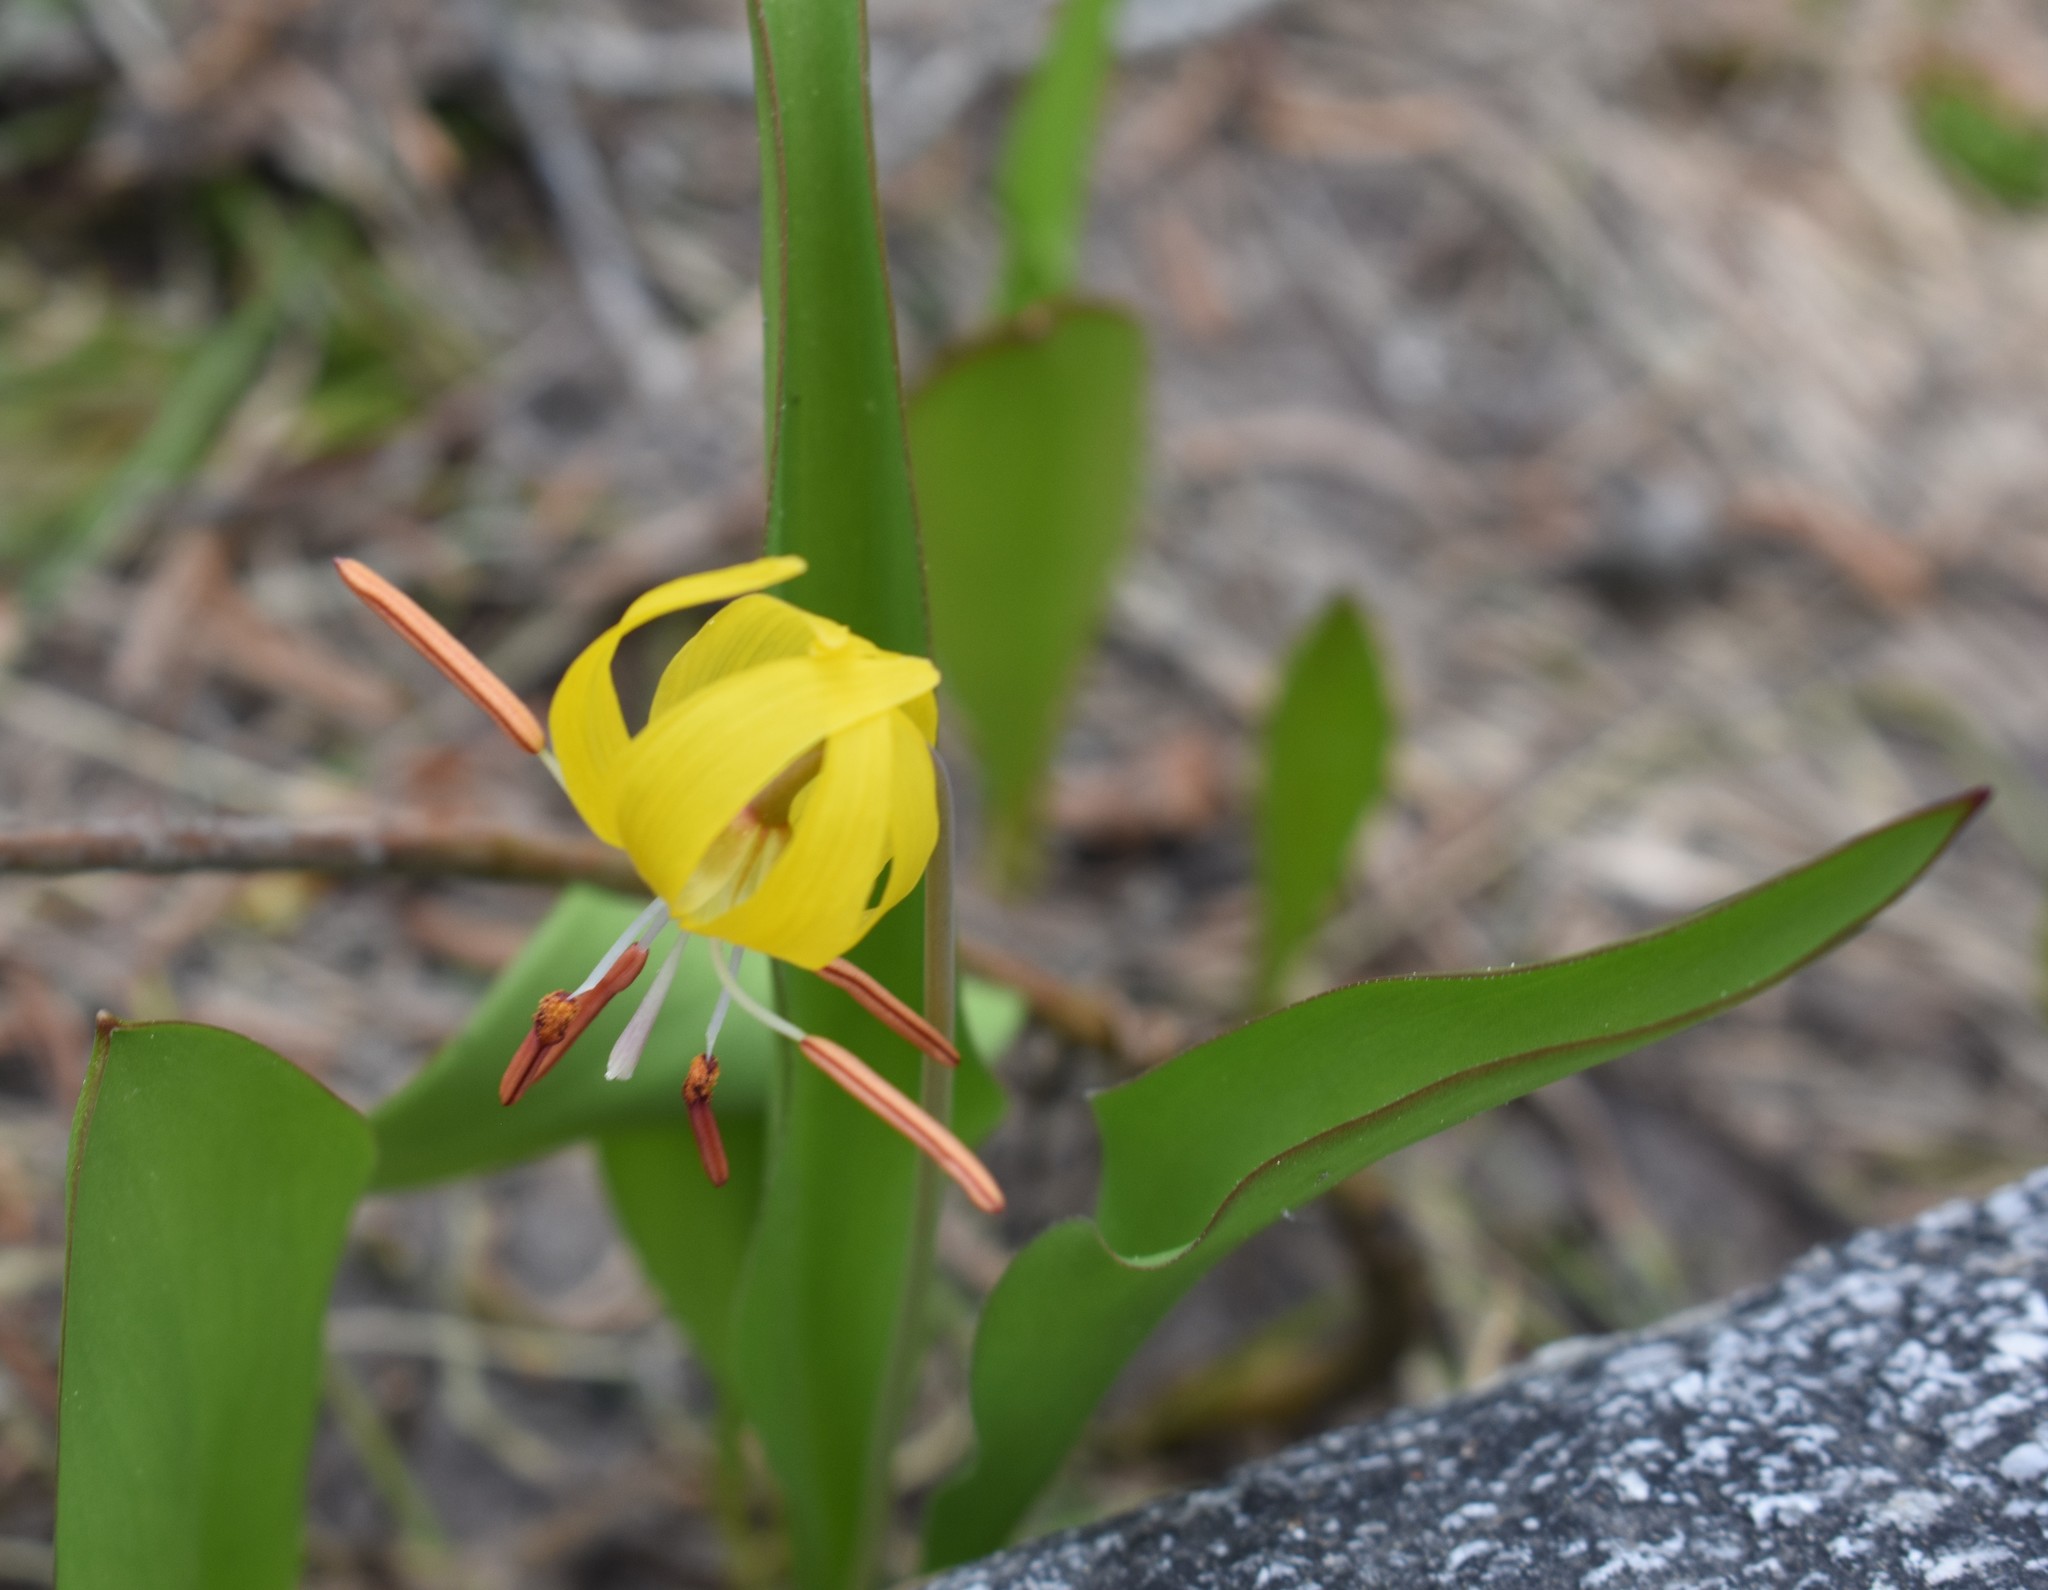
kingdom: Plantae
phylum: Tracheophyta
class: Liliopsida
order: Liliales
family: Liliaceae
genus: Erythronium
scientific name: Erythronium grandiflorum
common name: Avalanche-lily
